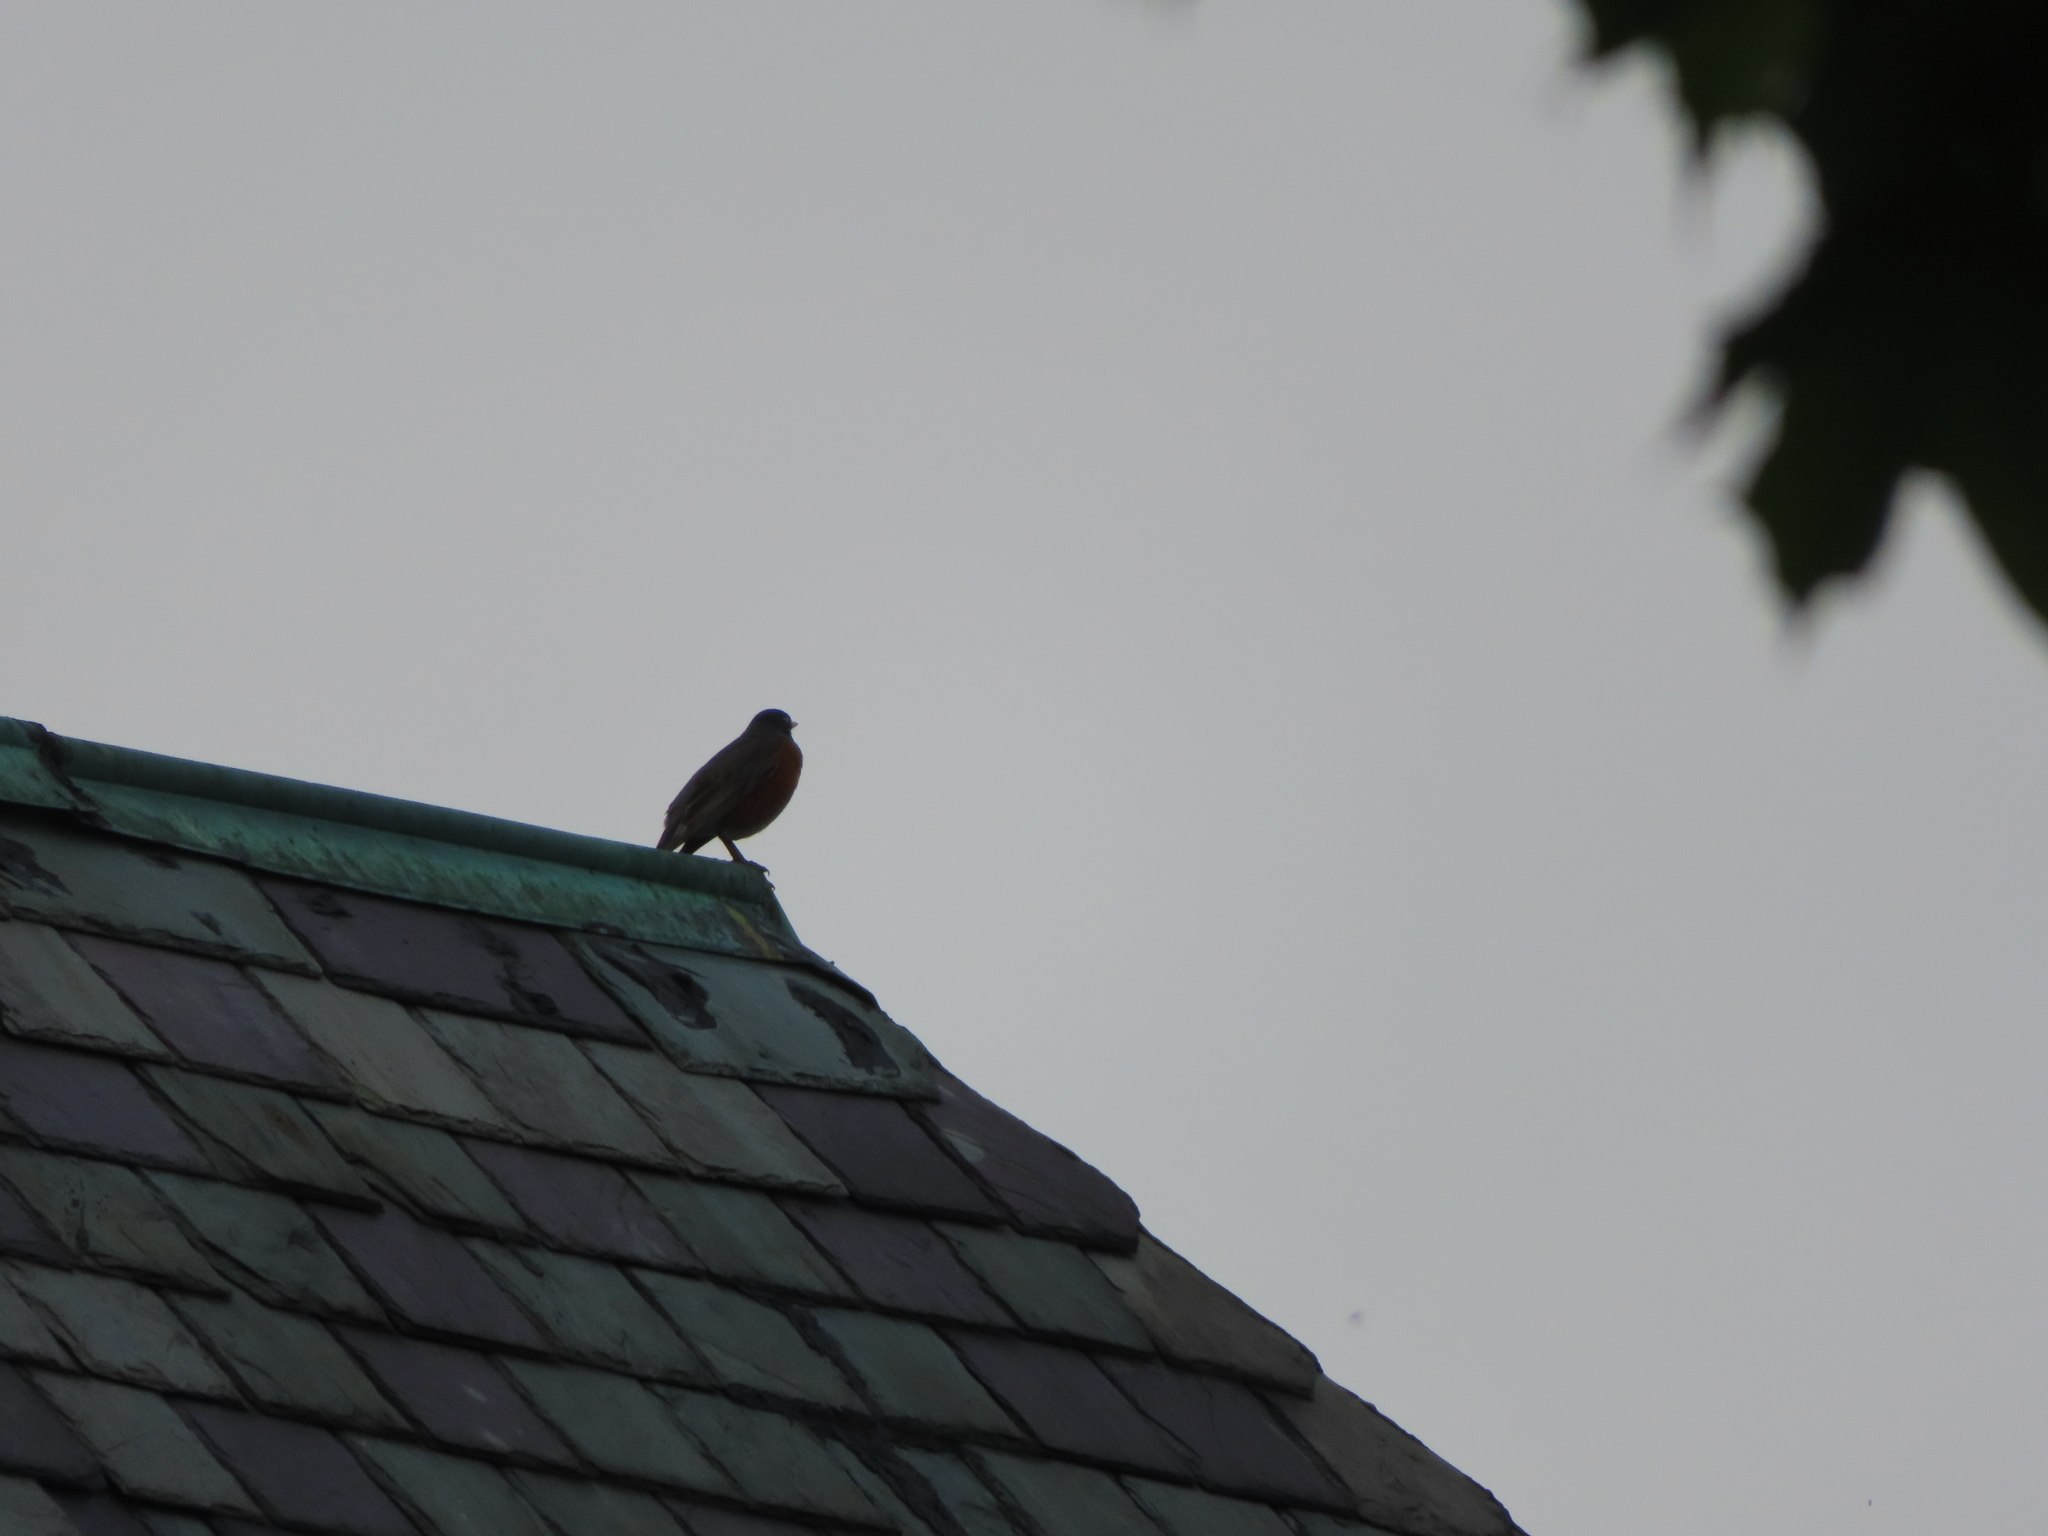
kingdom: Animalia
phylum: Chordata
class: Aves
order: Passeriformes
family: Turdidae
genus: Turdus
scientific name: Turdus migratorius
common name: American robin
